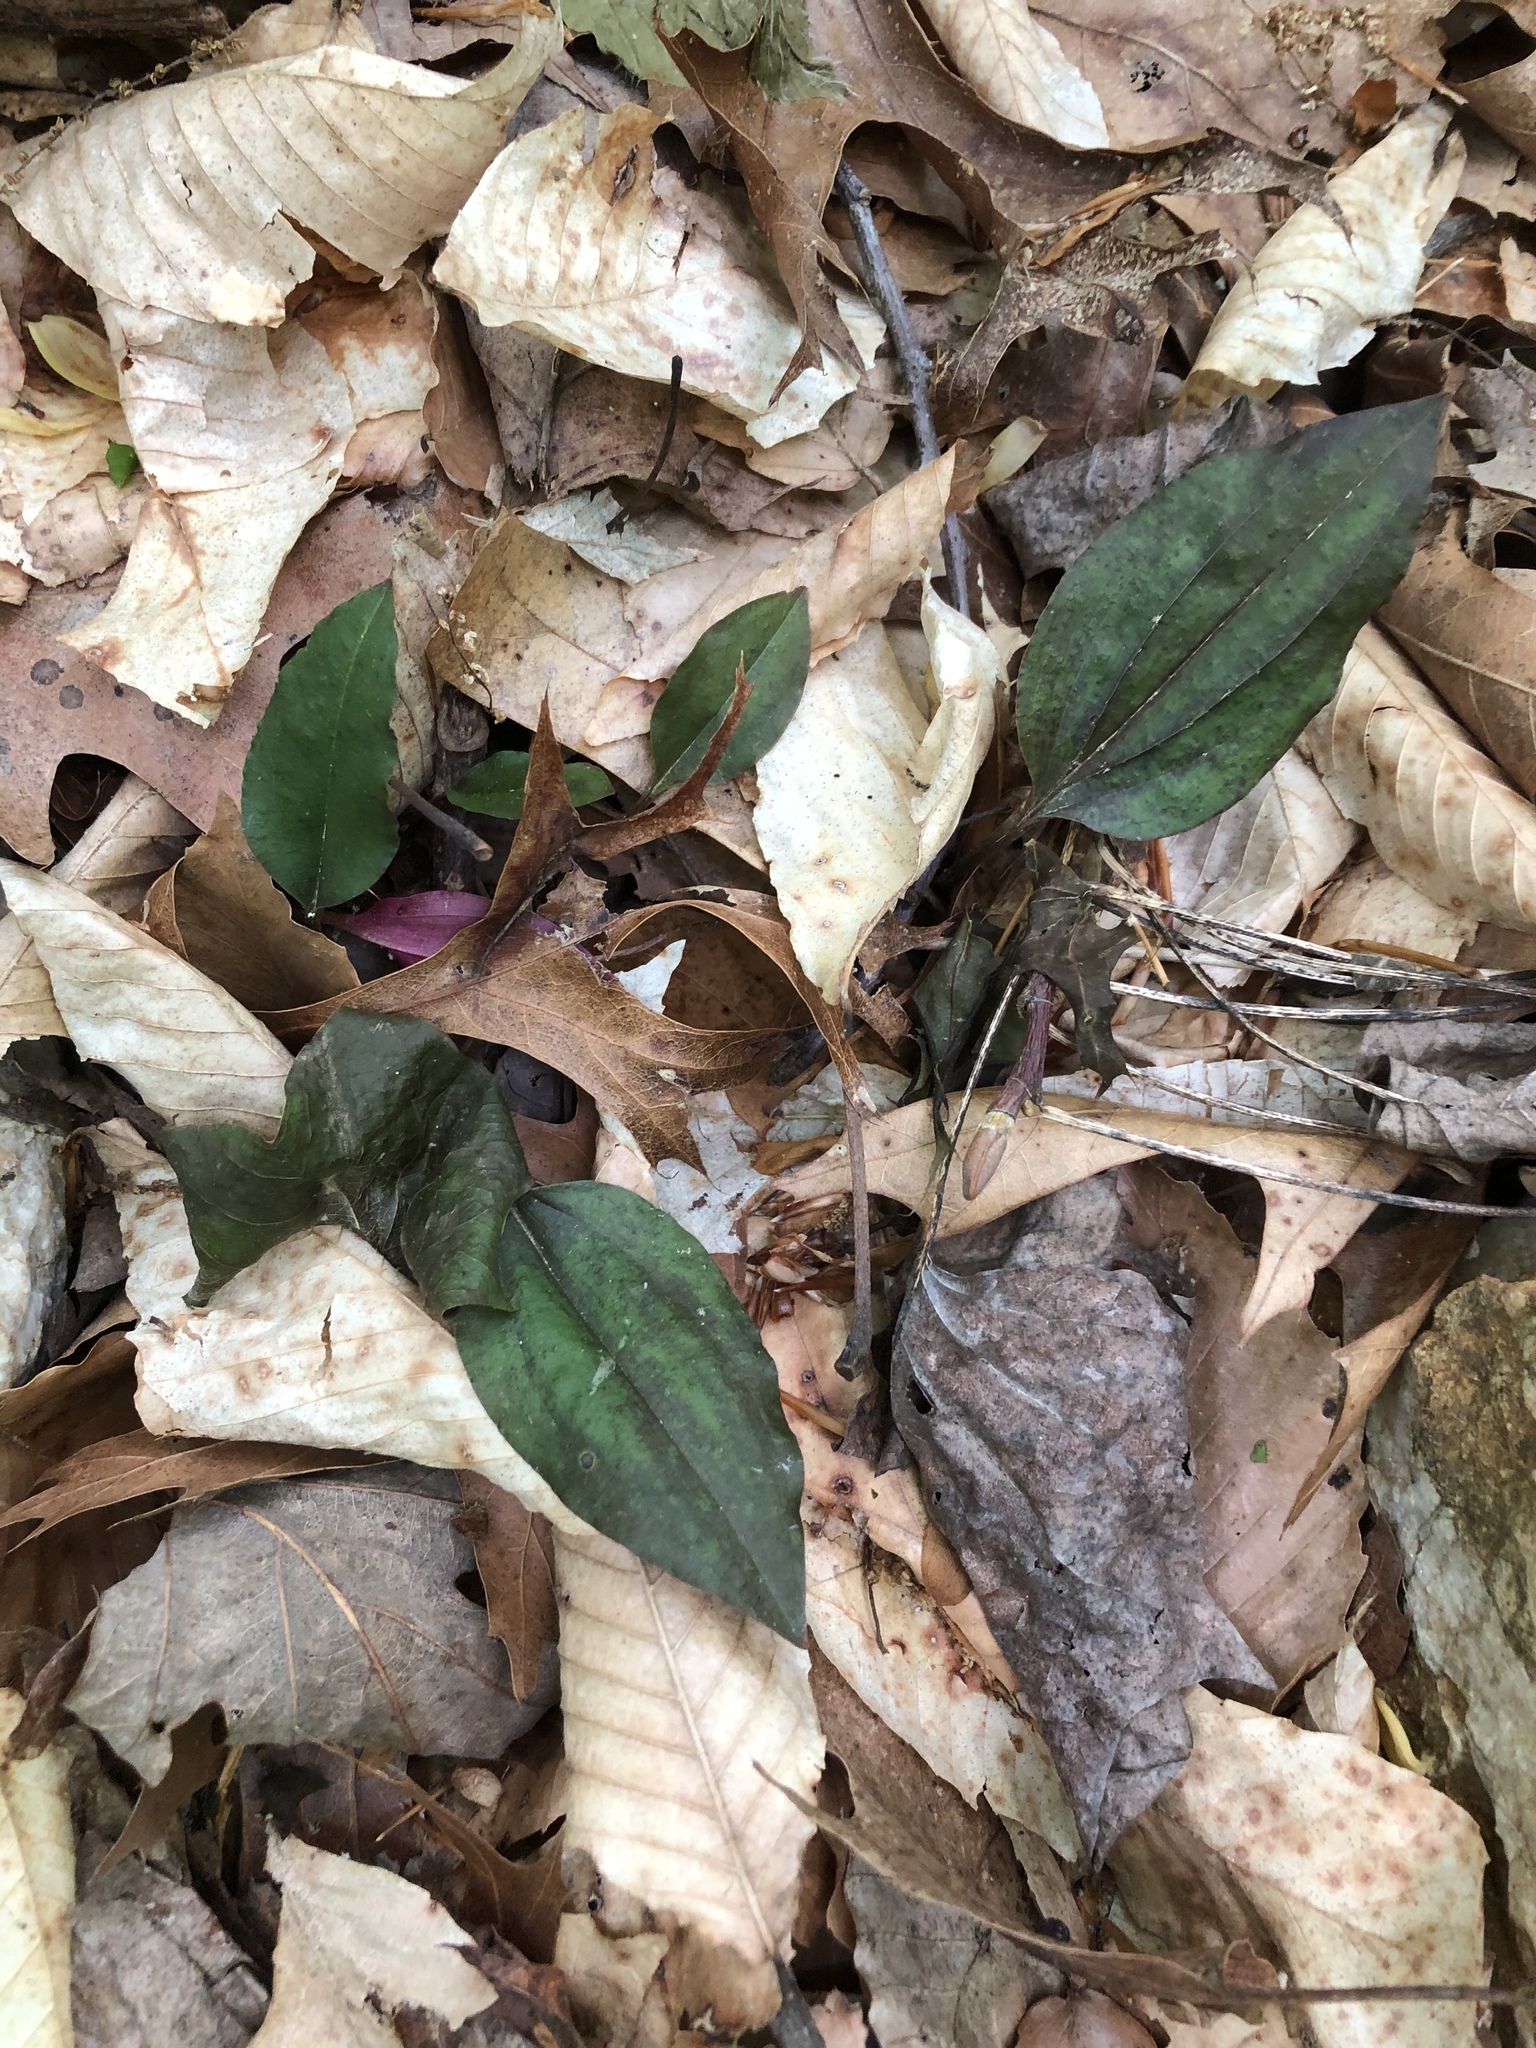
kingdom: Plantae
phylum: Tracheophyta
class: Liliopsida
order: Asparagales
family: Orchidaceae
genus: Tipularia
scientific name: Tipularia discolor
